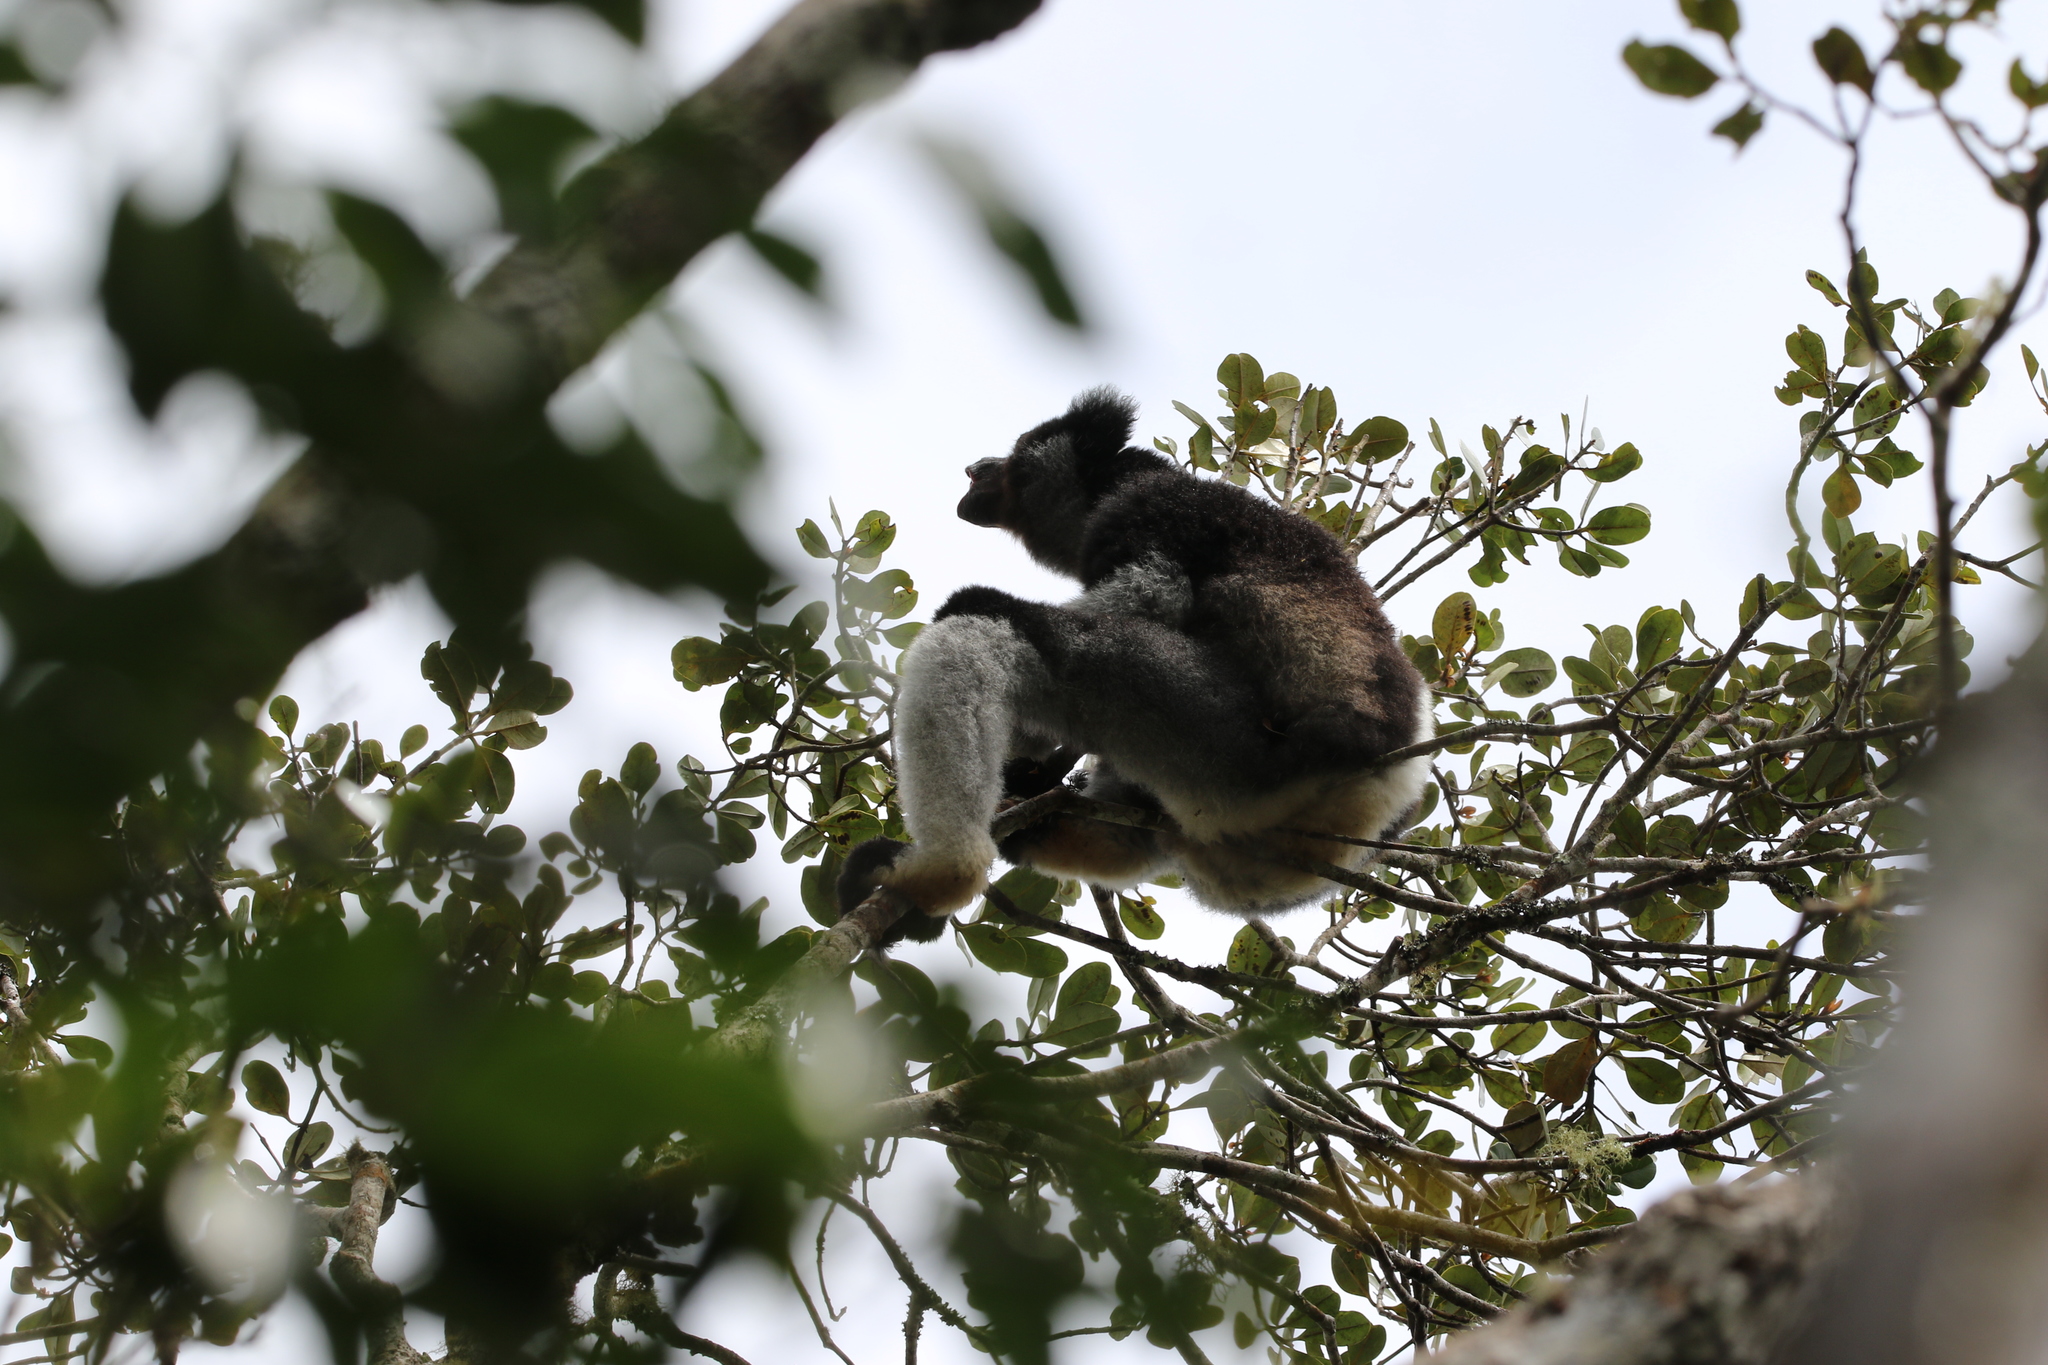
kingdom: Animalia
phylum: Chordata
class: Mammalia
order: Primates
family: Indriidae
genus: Indri
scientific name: Indri indri
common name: Indri
